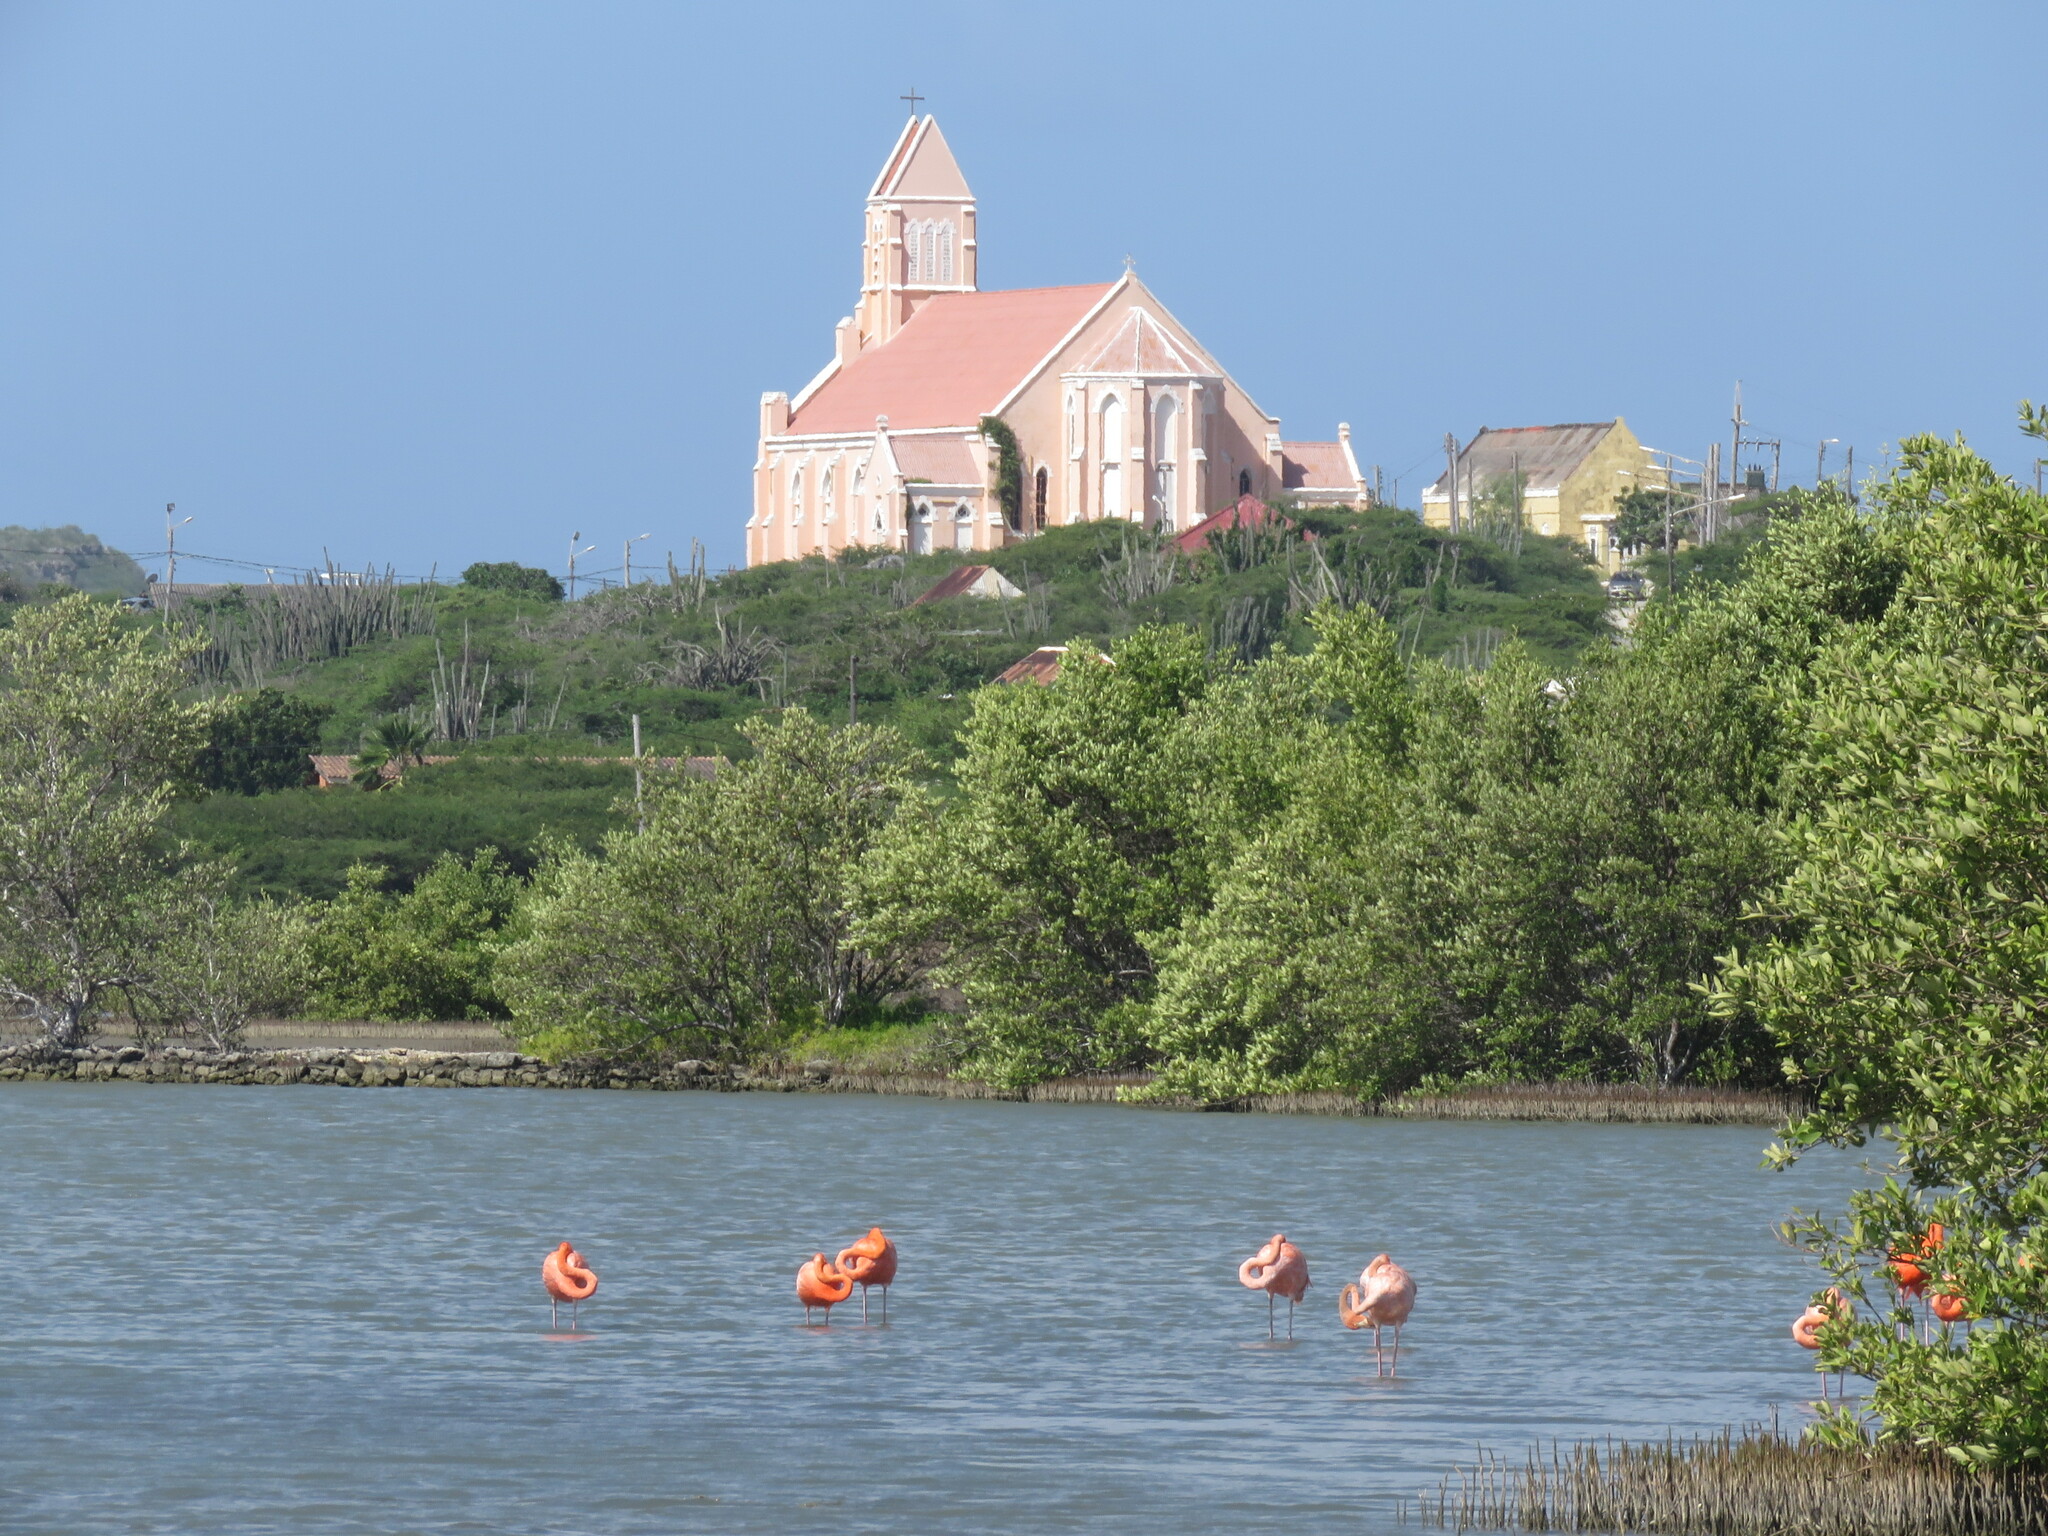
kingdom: Animalia
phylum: Chordata
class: Aves
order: Phoenicopteriformes
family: Phoenicopteridae
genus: Phoenicopterus
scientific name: Phoenicopterus ruber
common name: American flamingo
